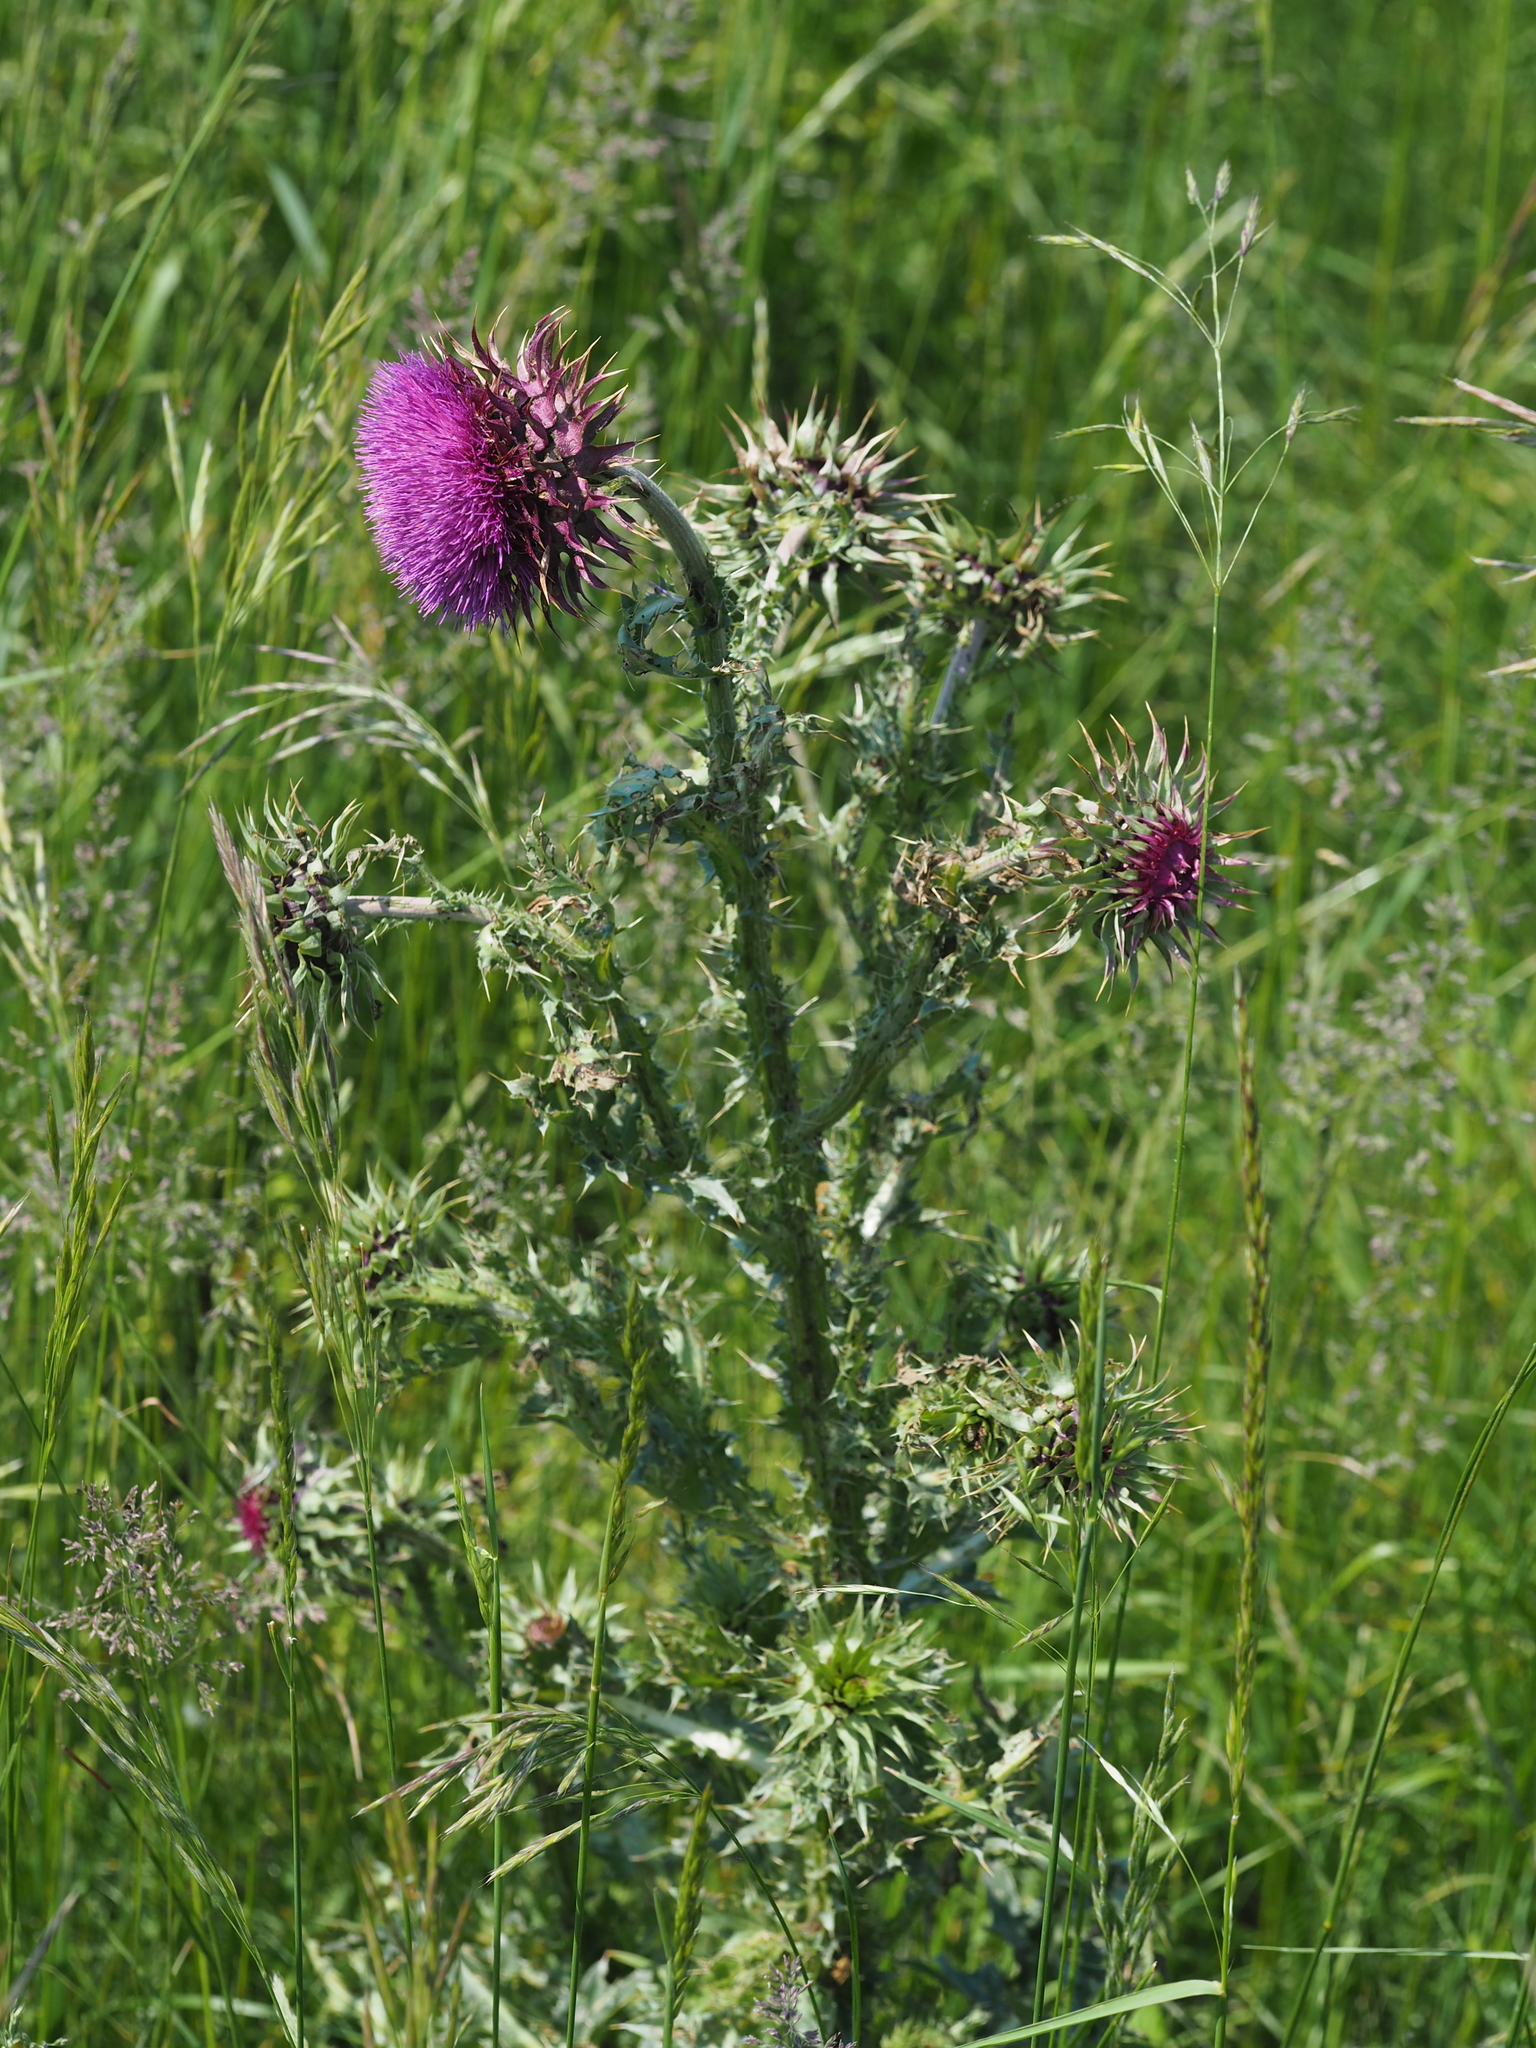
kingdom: Plantae
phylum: Tracheophyta
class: Magnoliopsida
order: Asterales
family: Asteraceae
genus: Carduus
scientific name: Carduus nutans
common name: Musk thistle
